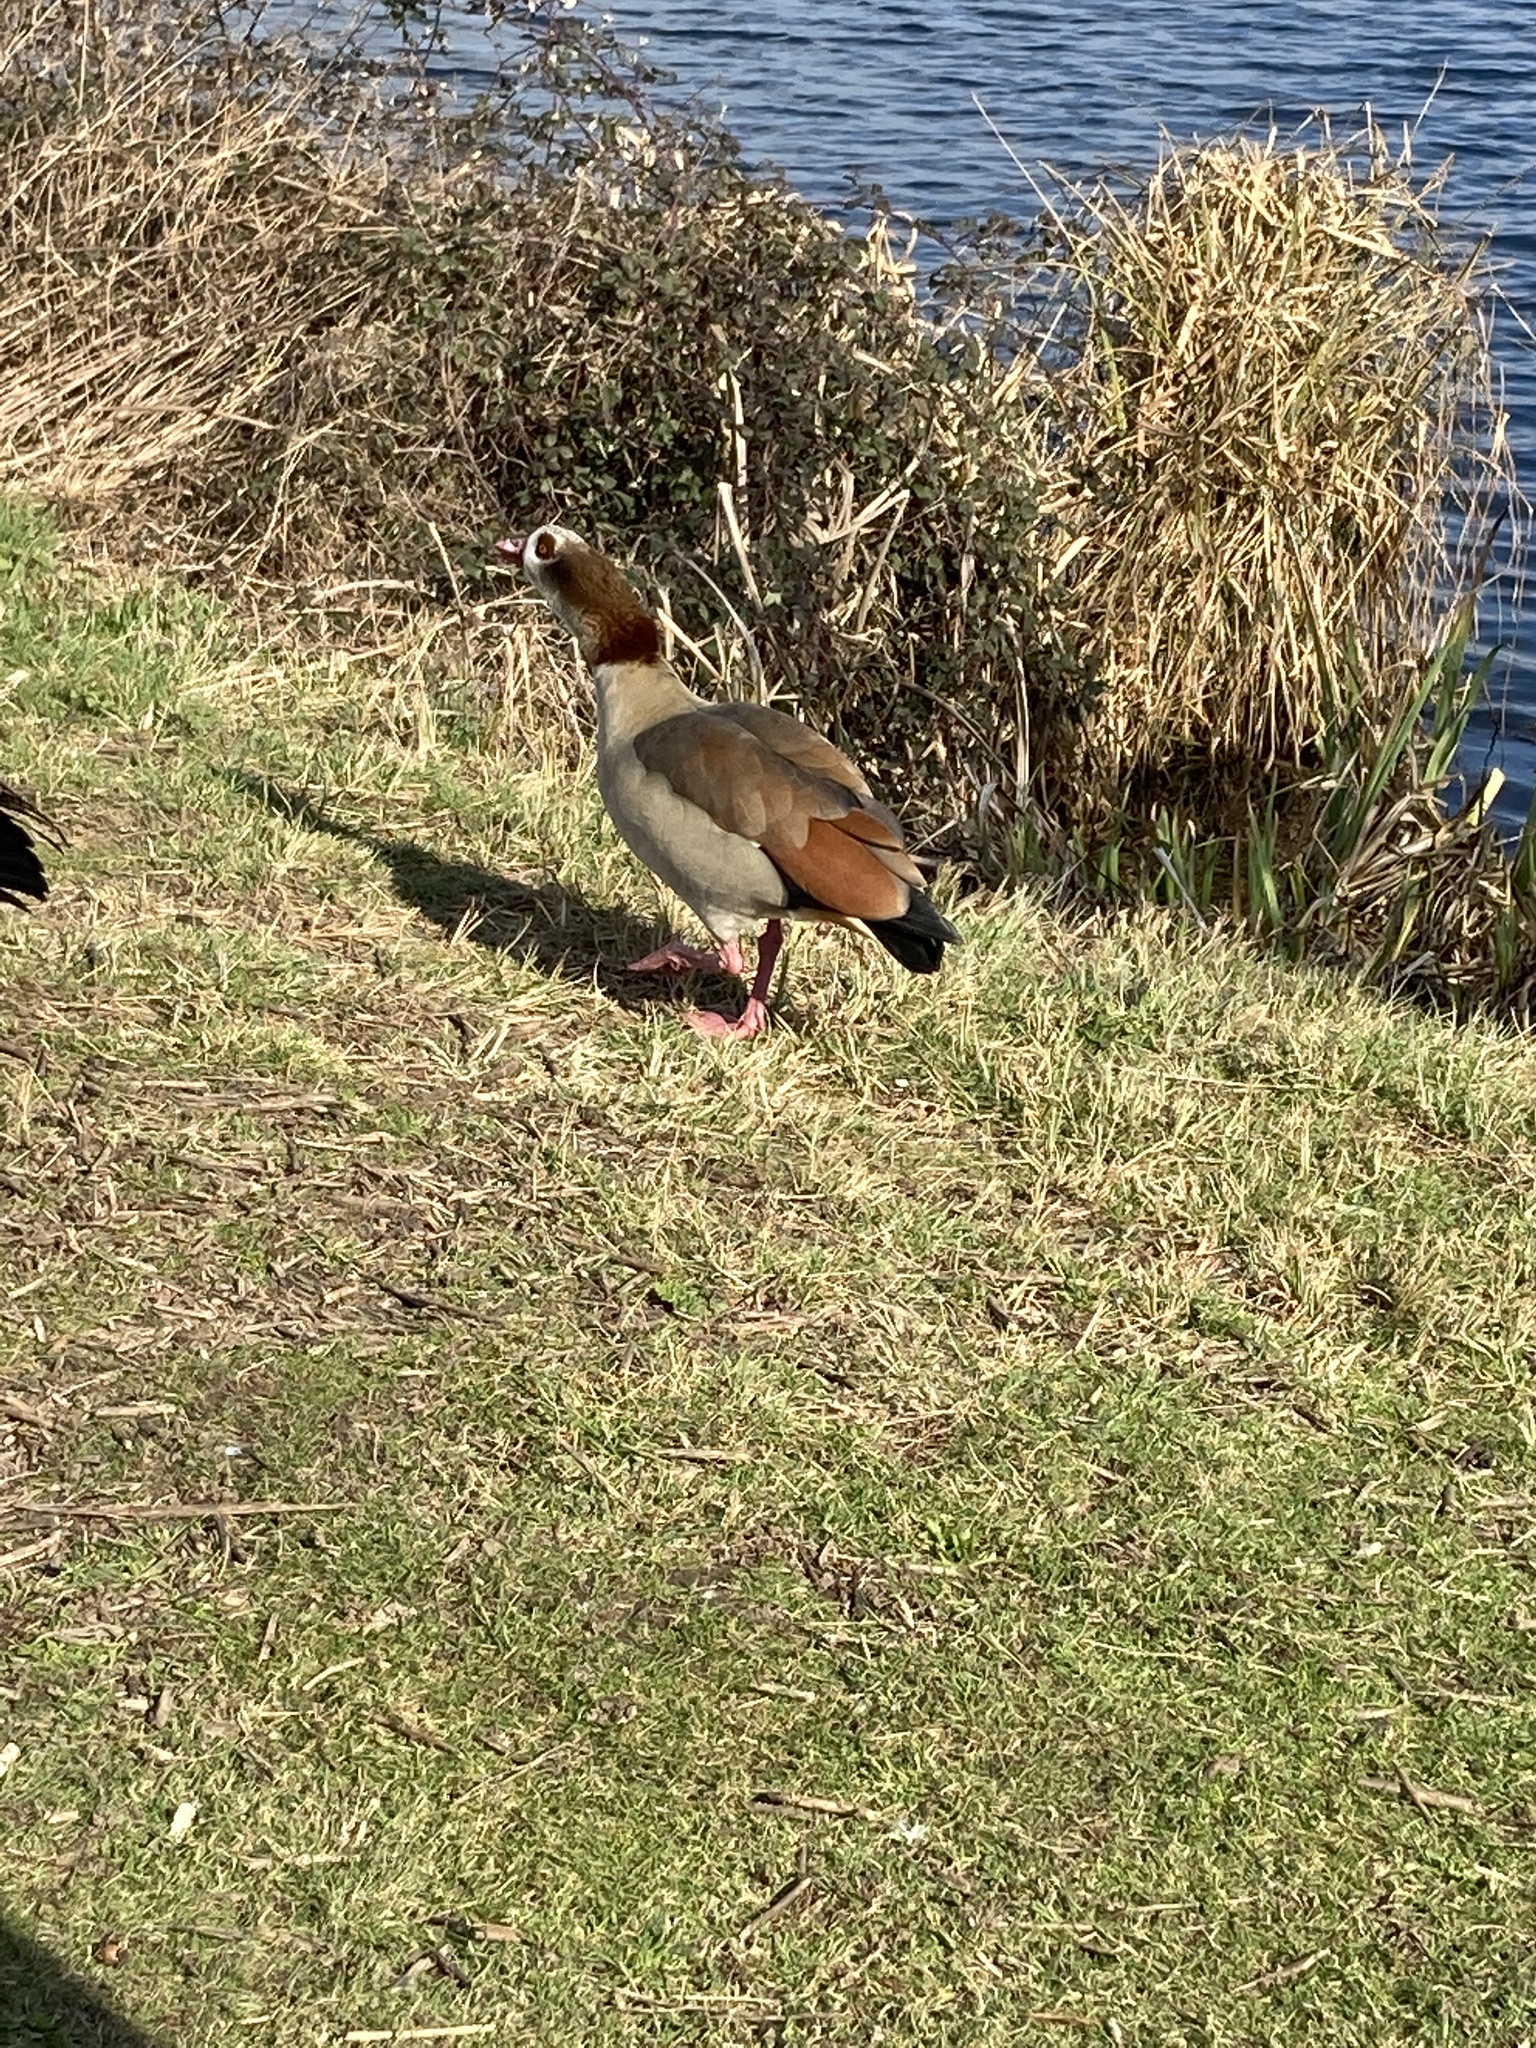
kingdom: Animalia
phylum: Chordata
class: Aves
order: Anseriformes
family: Anatidae
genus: Alopochen
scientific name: Alopochen aegyptiaca
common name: Egyptian goose
